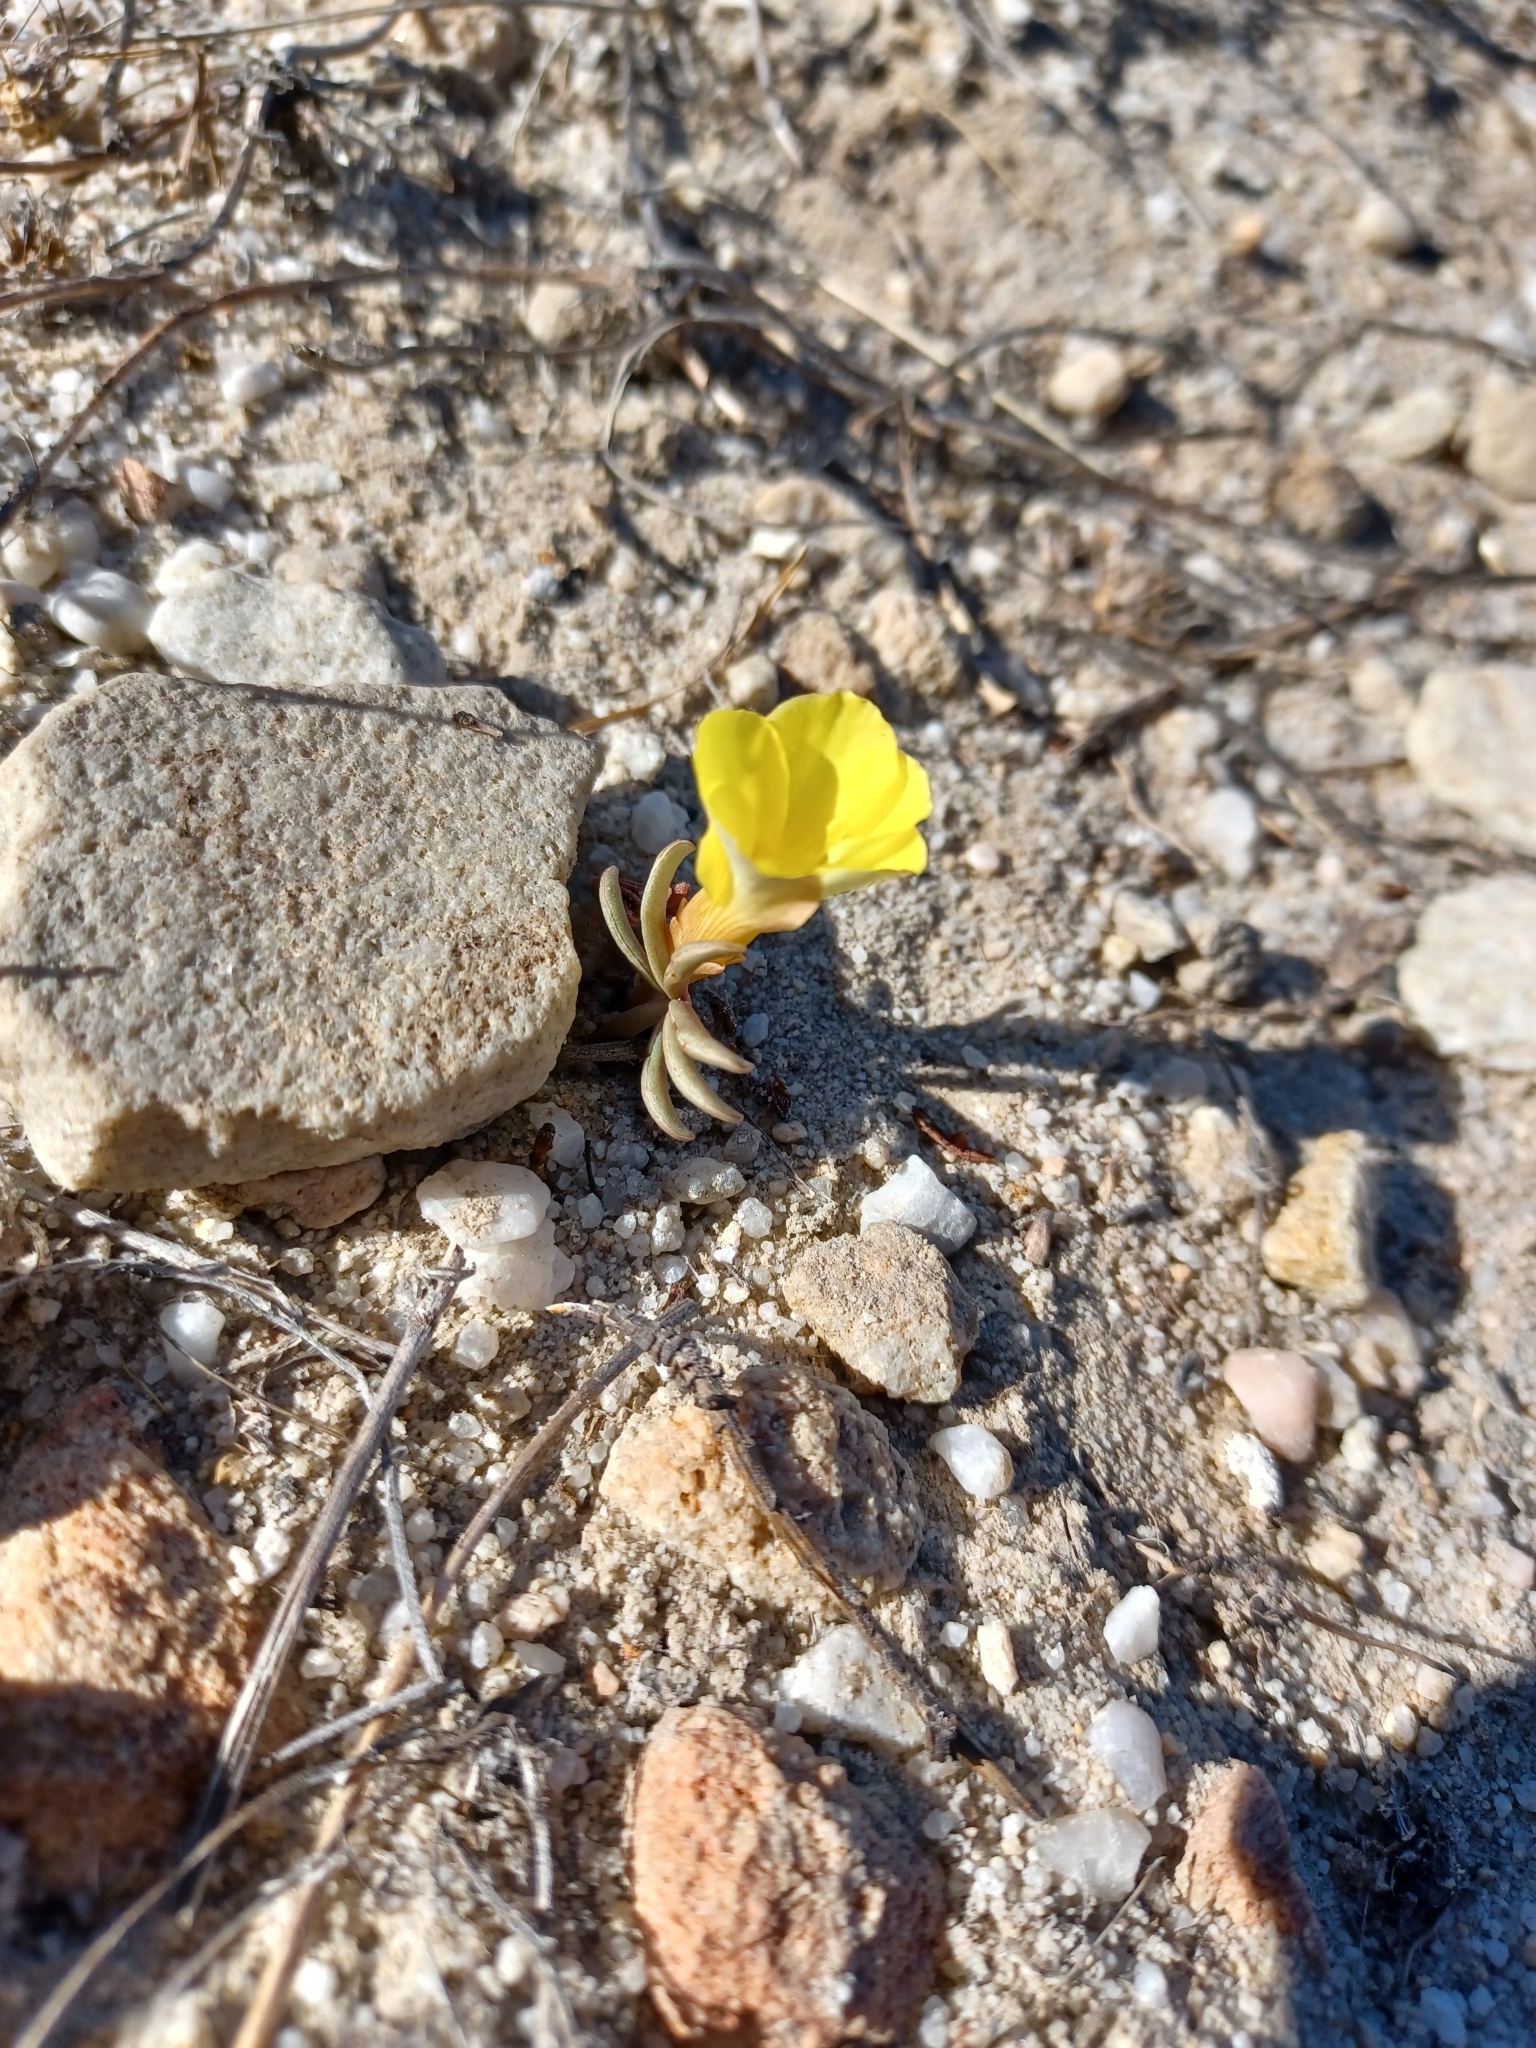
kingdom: Plantae
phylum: Tracheophyta
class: Magnoliopsida
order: Oxalidales
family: Oxalidaceae
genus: Oxalis
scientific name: Oxalis flava
